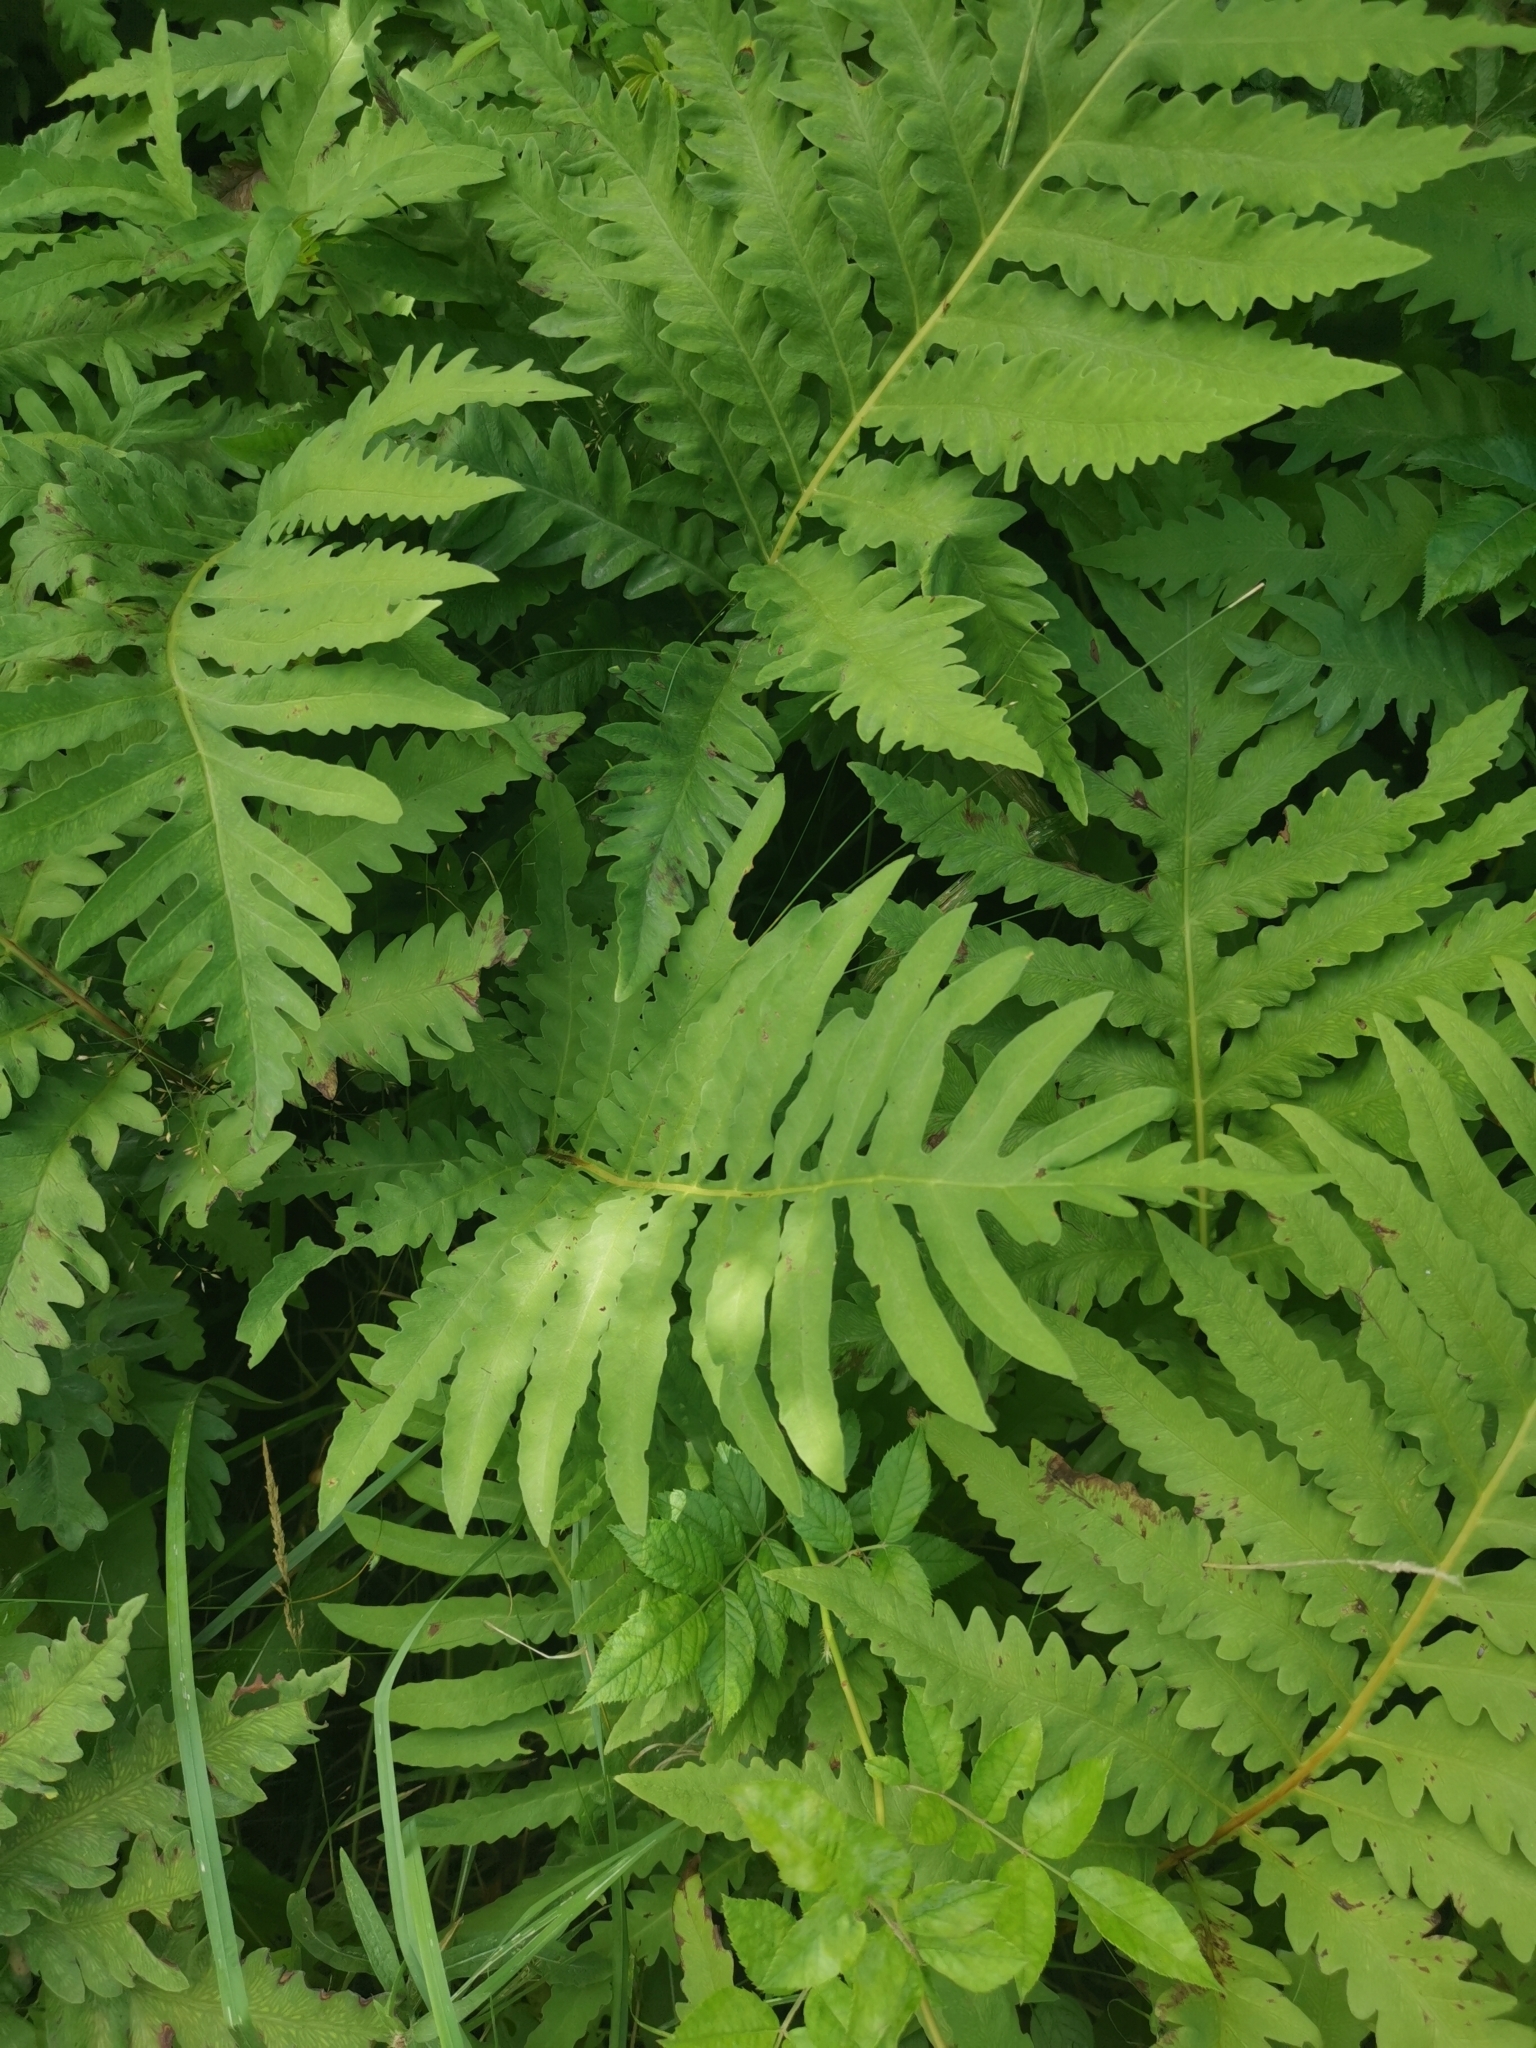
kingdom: Plantae
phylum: Tracheophyta
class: Polypodiopsida
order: Polypodiales
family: Onocleaceae
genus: Onoclea
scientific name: Onoclea sensibilis
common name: Sensitive fern
